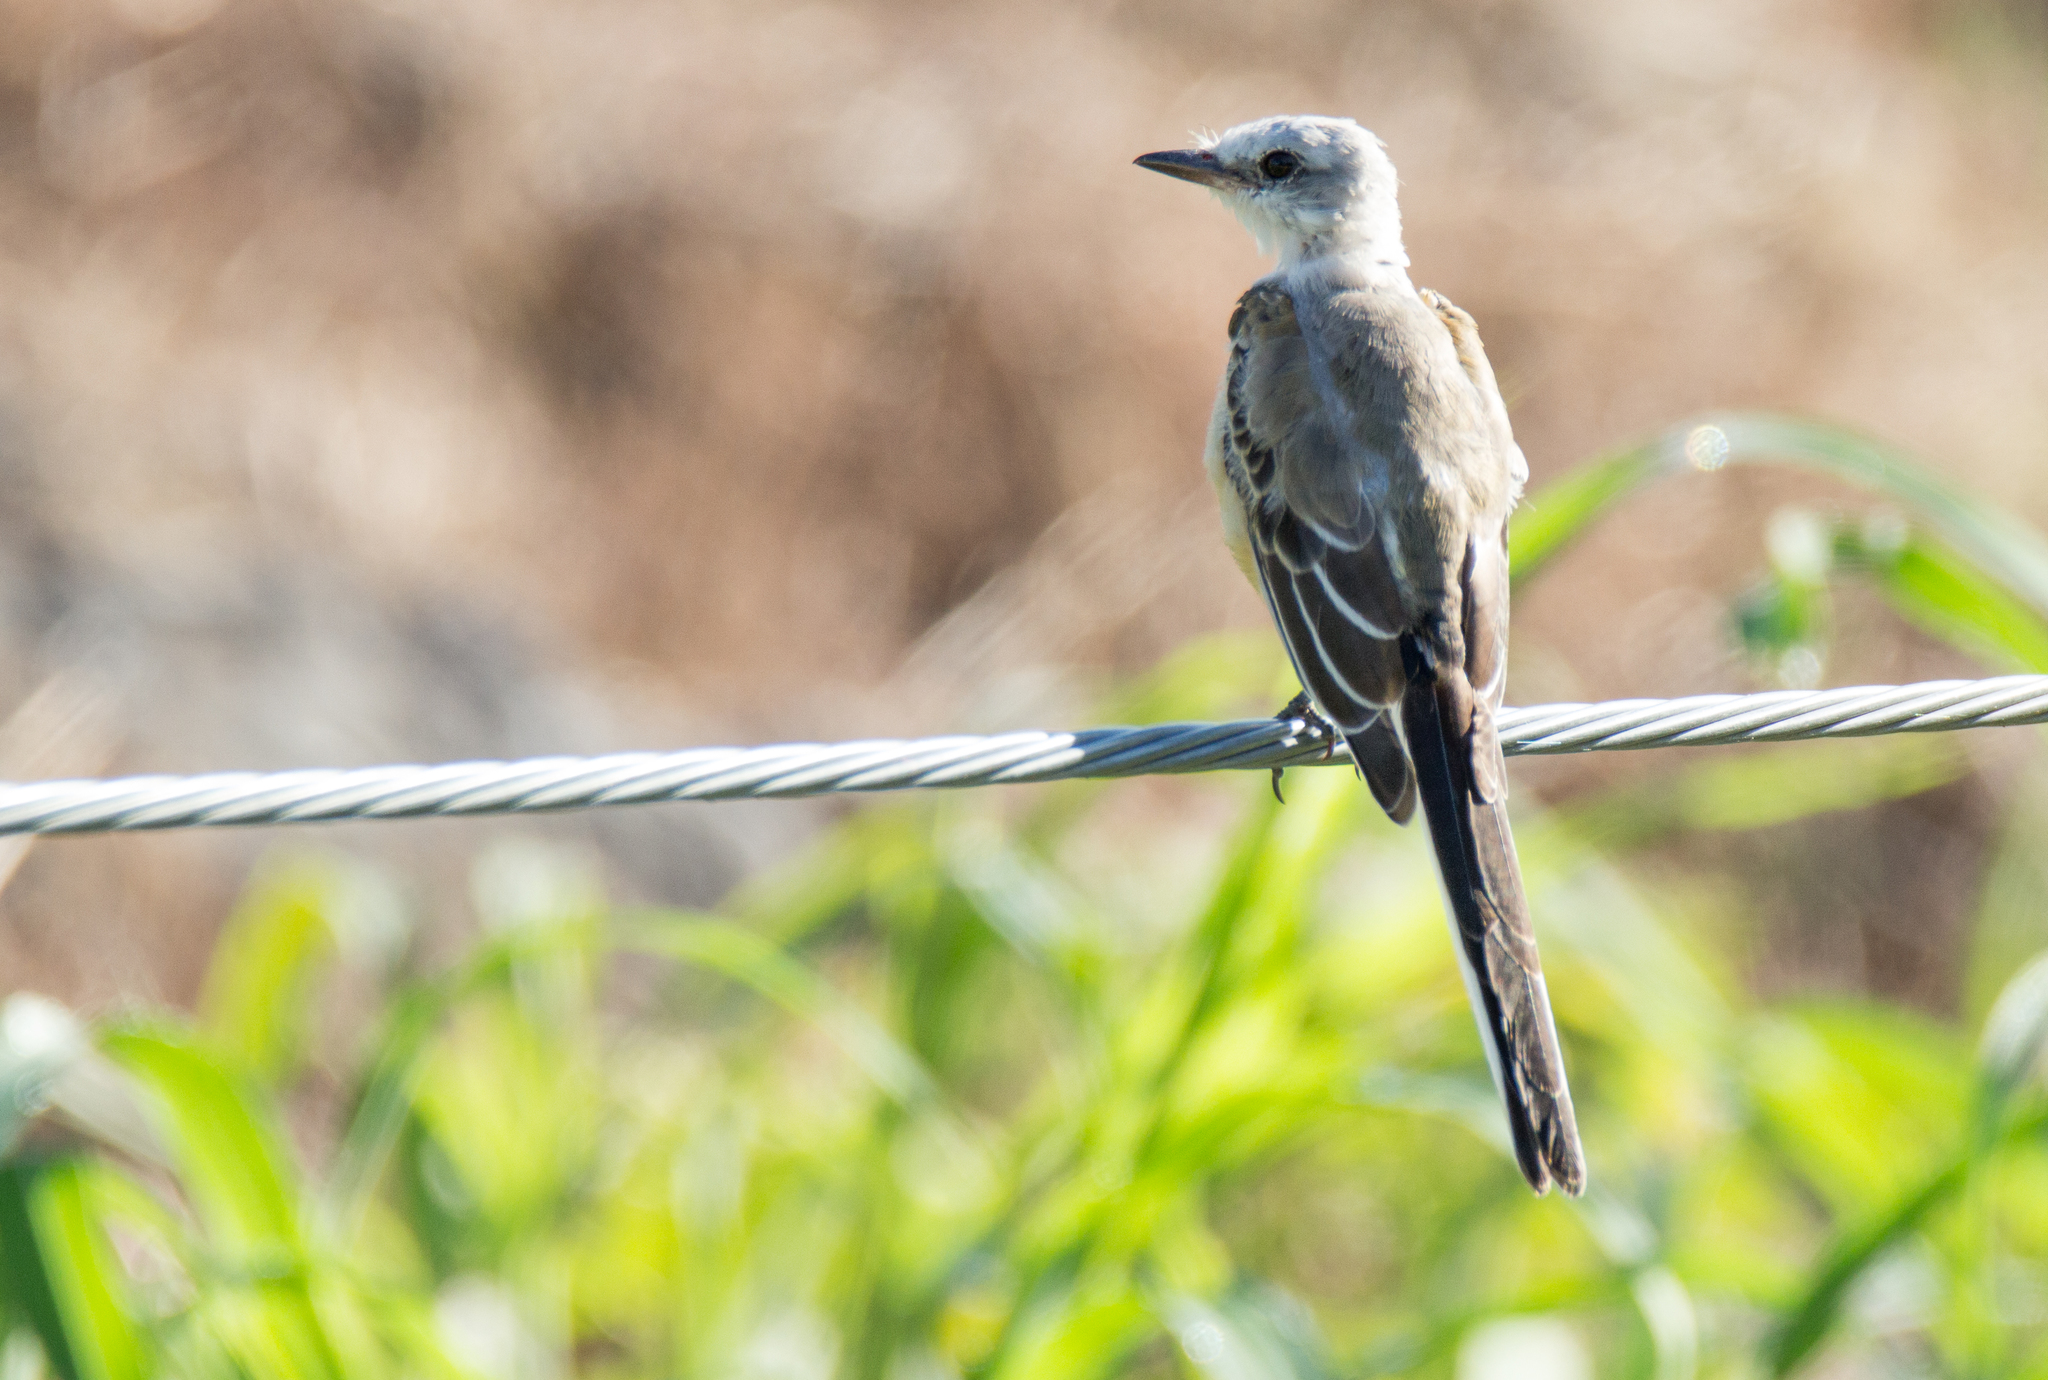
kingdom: Animalia
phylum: Chordata
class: Aves
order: Passeriformes
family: Tyrannidae
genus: Tyrannus
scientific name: Tyrannus forficatus
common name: Scissor-tailed flycatcher
